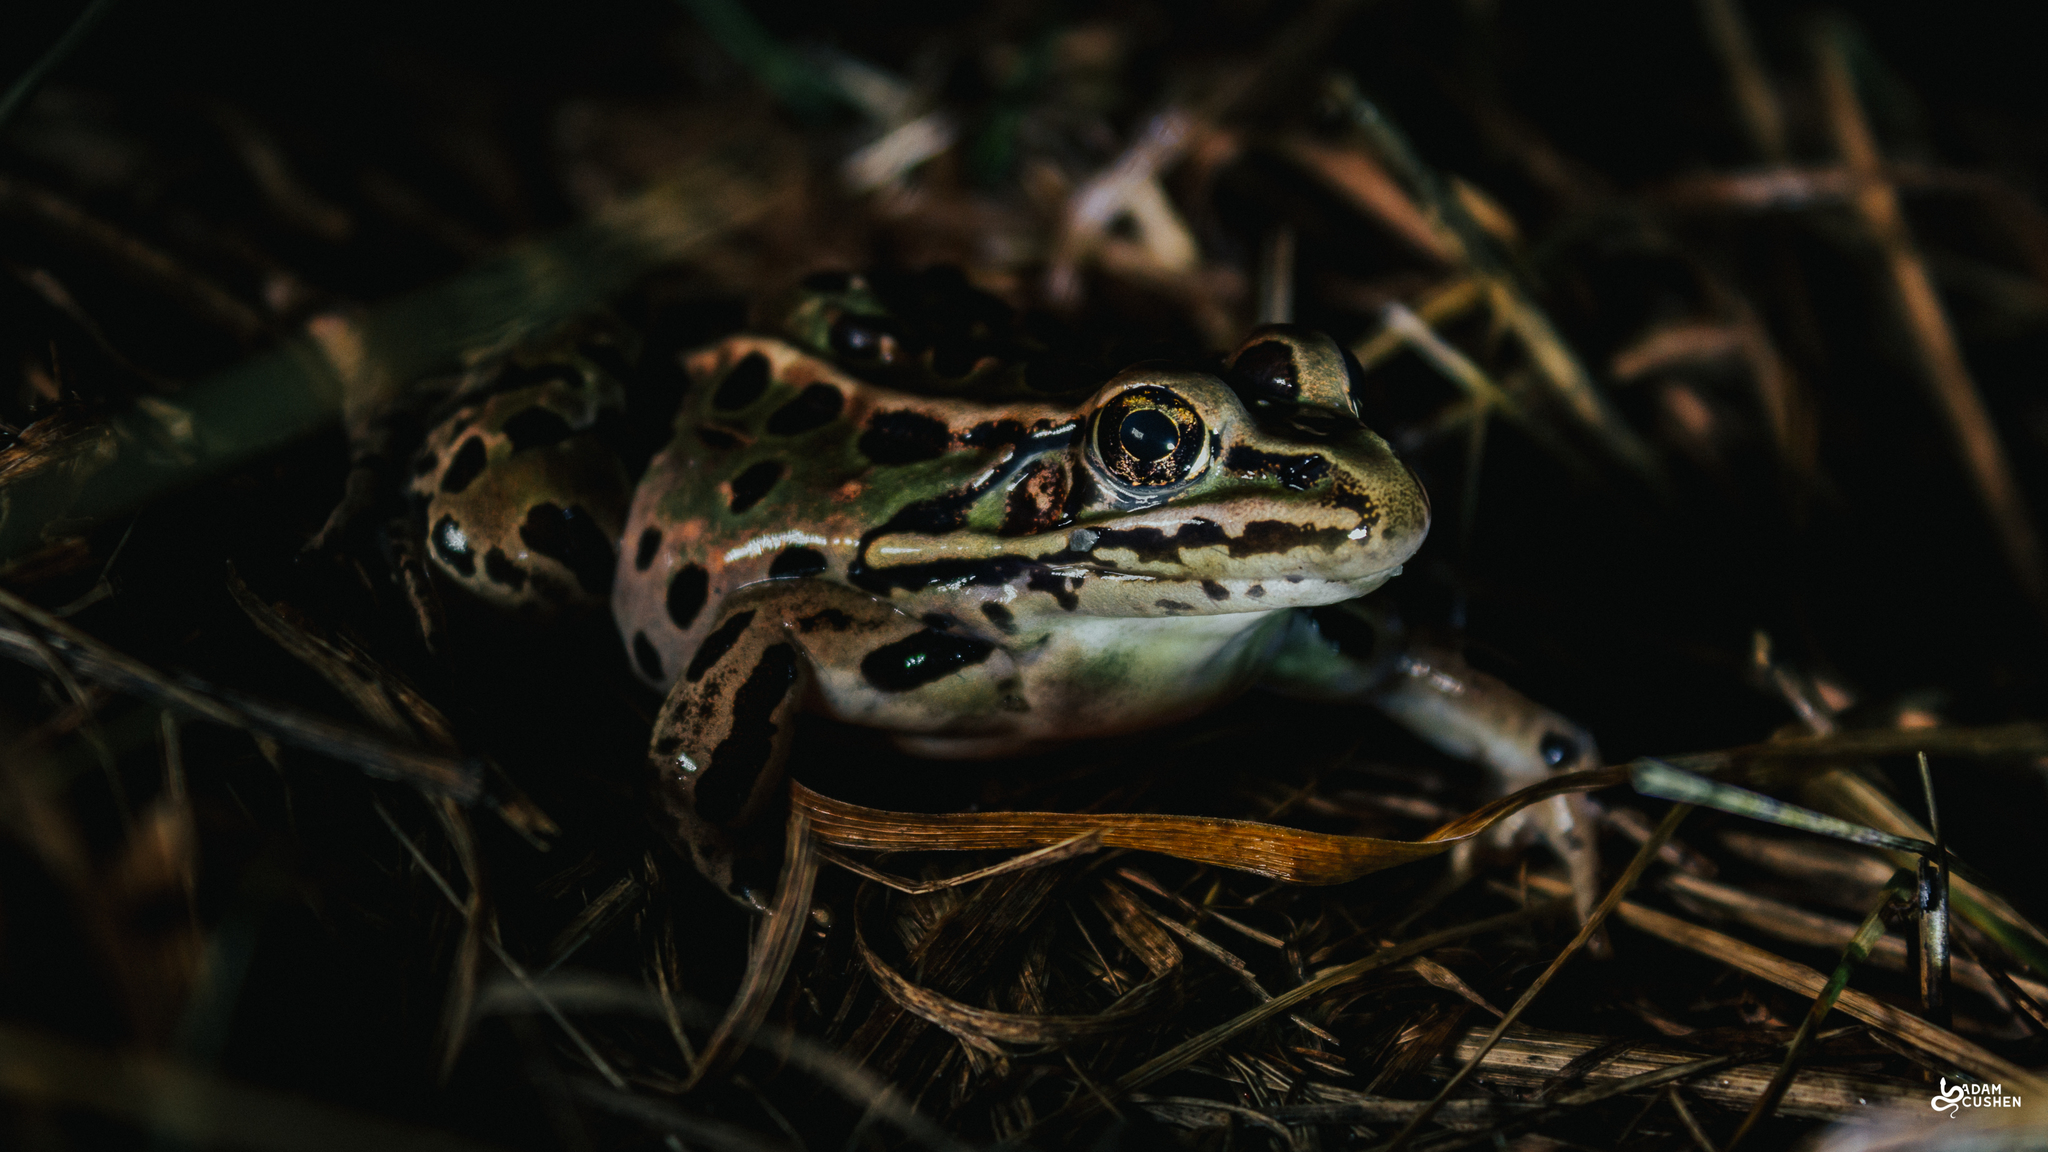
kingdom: Animalia
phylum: Chordata
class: Amphibia
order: Anura
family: Ranidae
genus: Lithobates
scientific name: Lithobates pipiens
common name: Northern leopard frog
